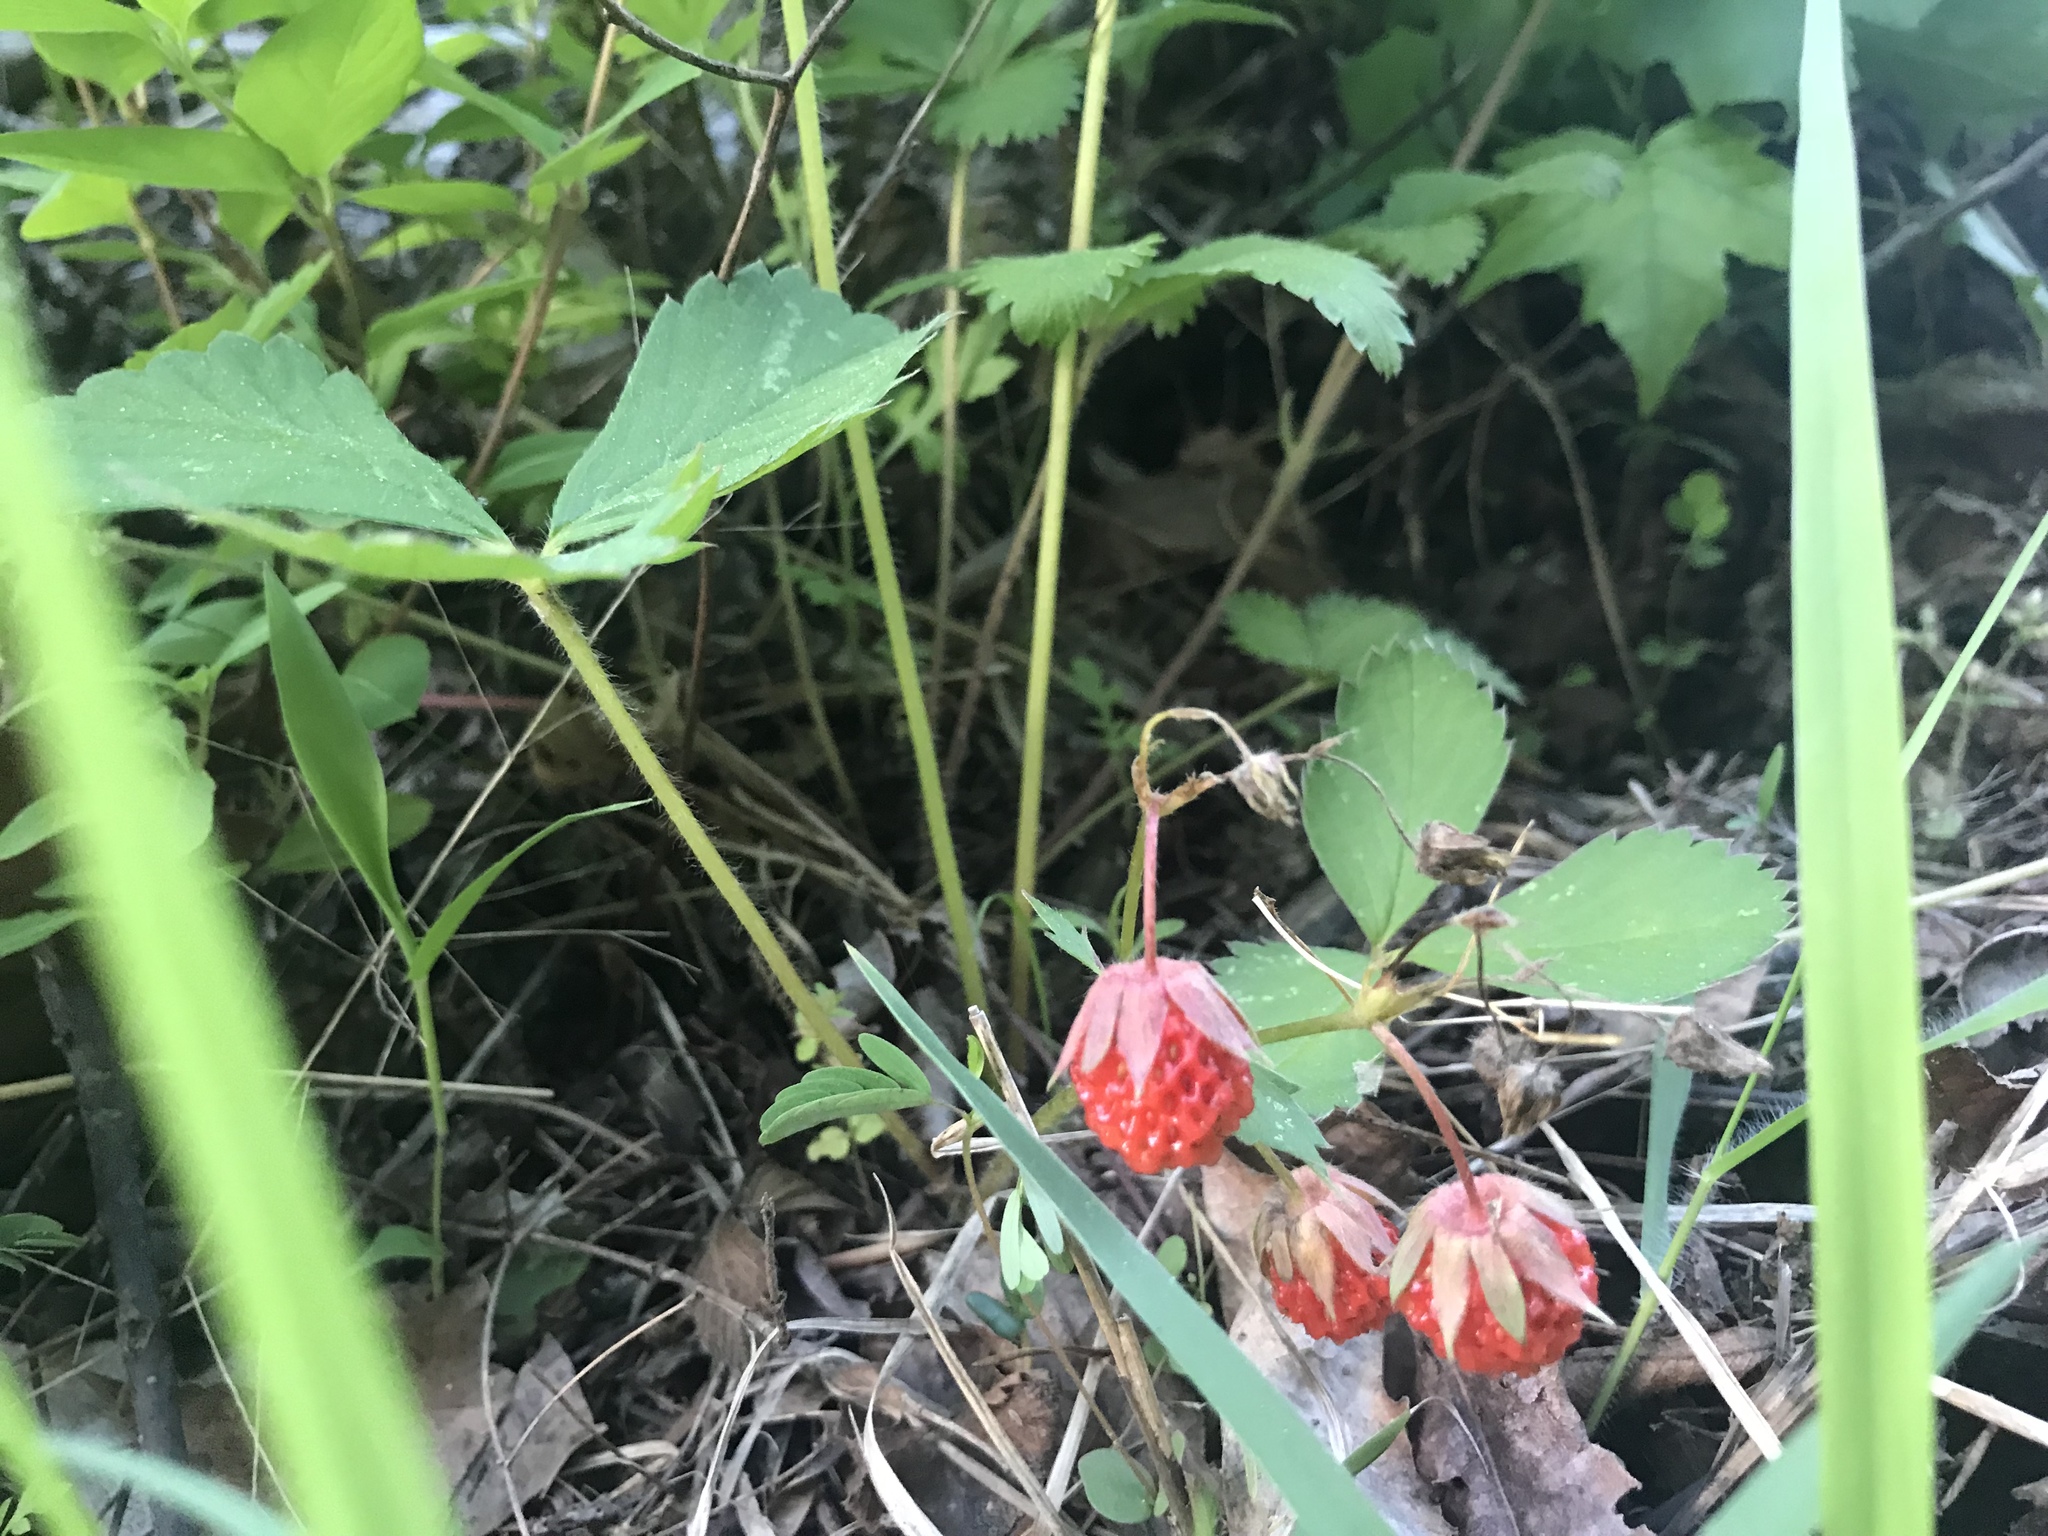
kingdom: Plantae
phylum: Tracheophyta
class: Magnoliopsida
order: Rosales
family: Rosaceae
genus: Fragaria
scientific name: Fragaria virginiana
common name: Thickleaved wild strawberry
